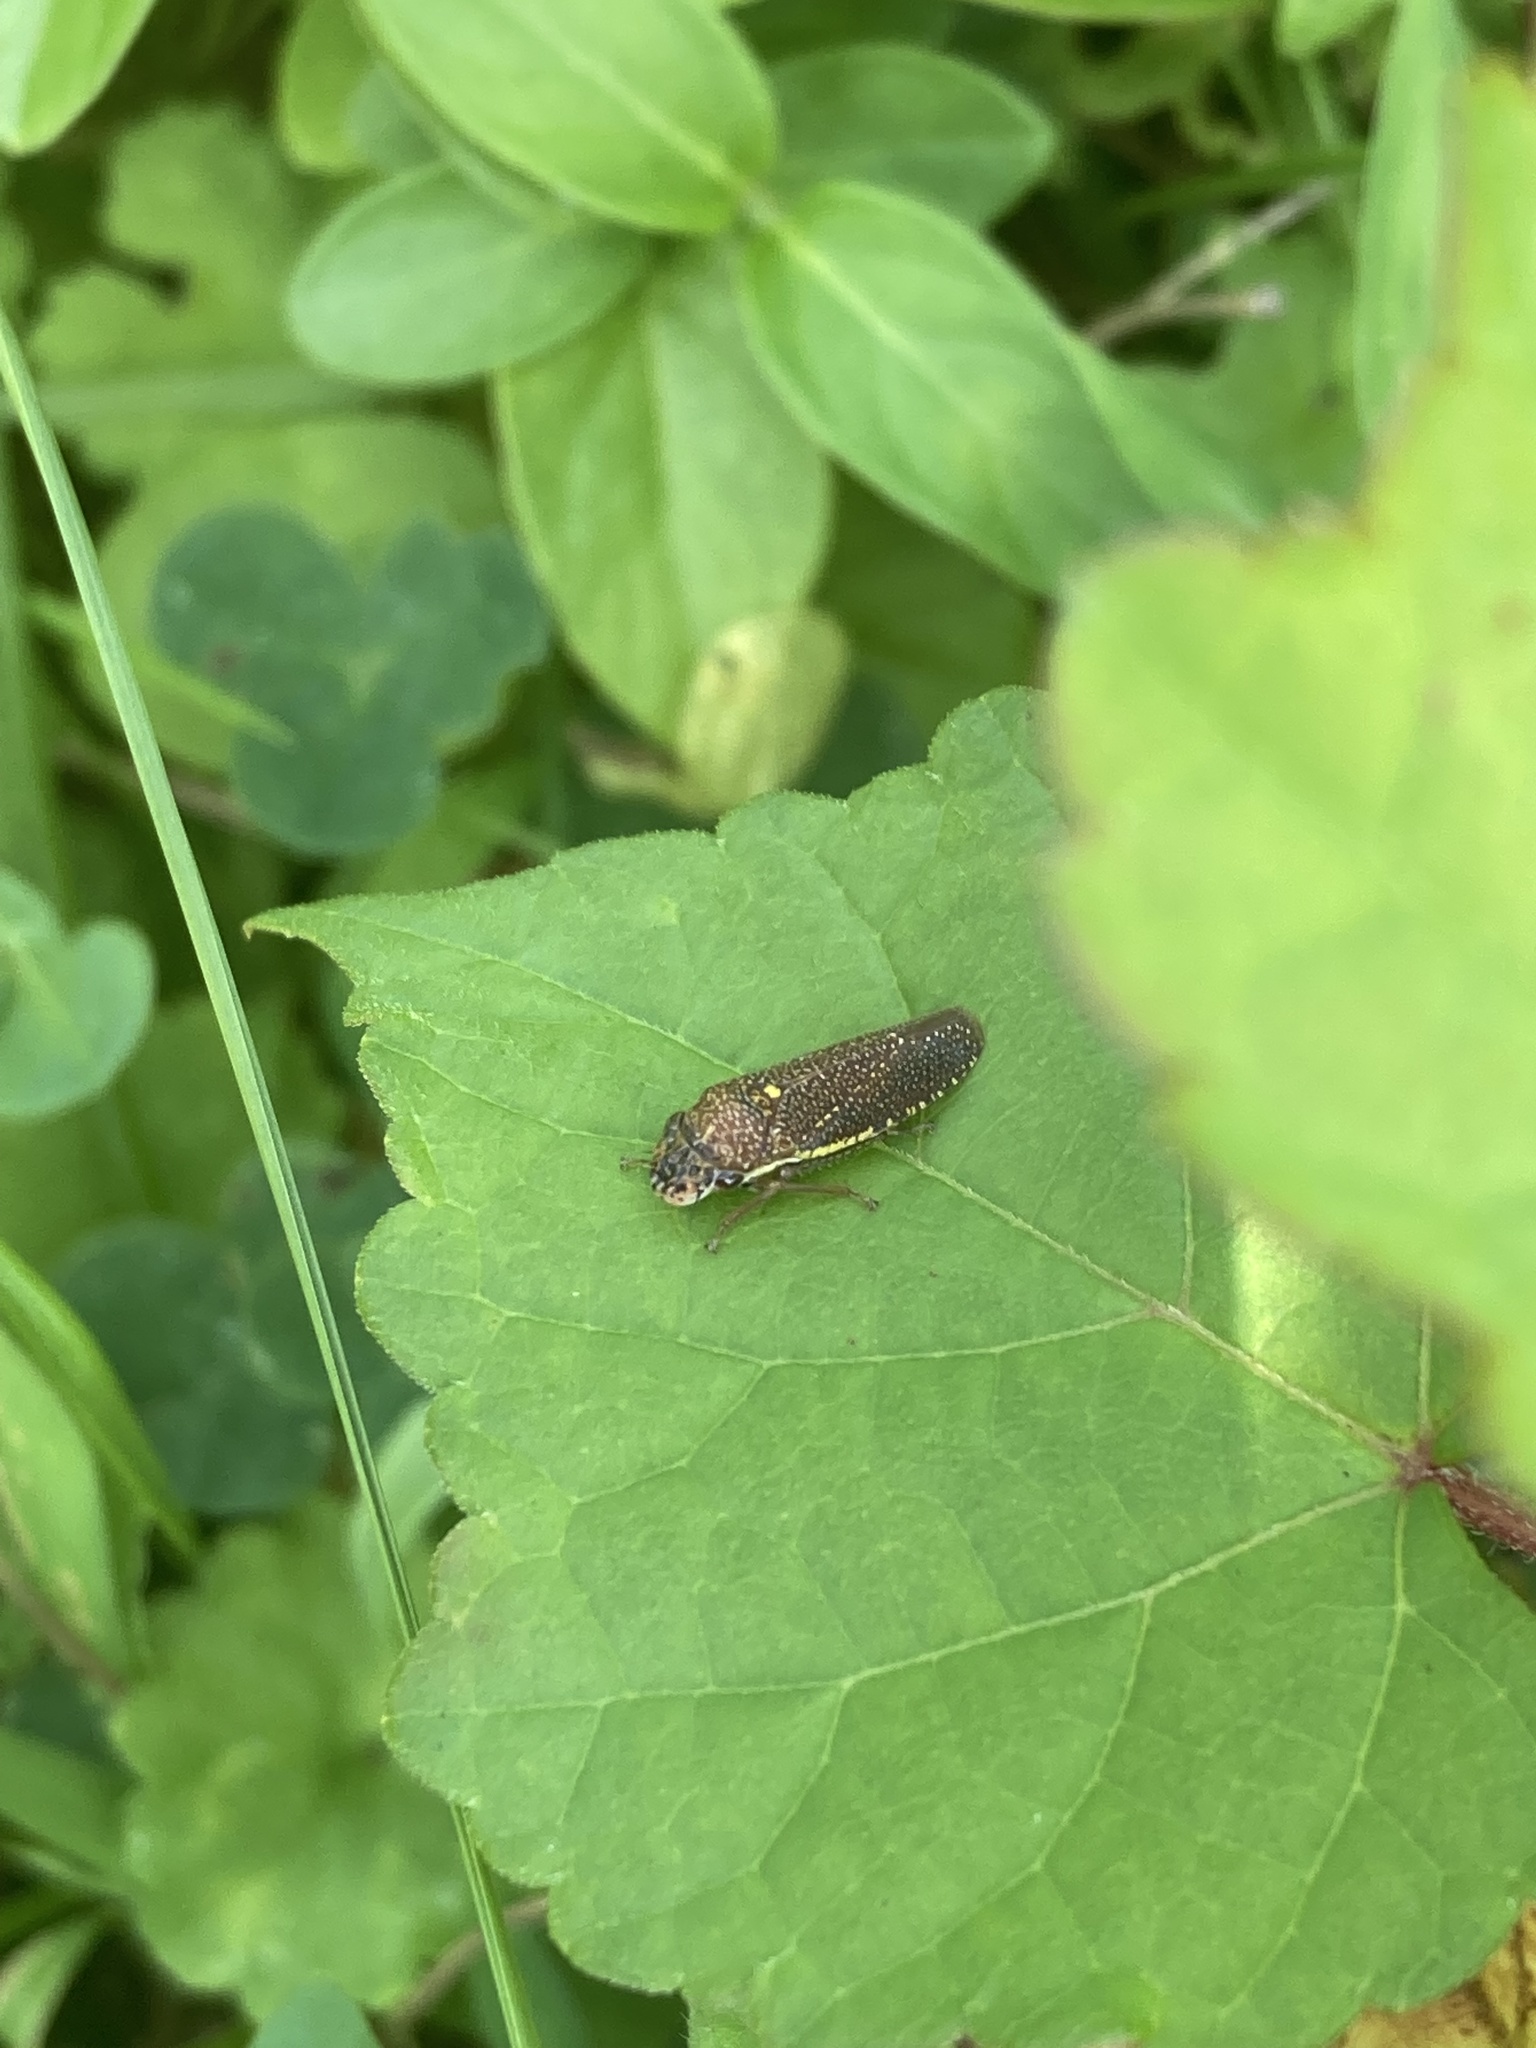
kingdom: Animalia
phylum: Arthropoda
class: Insecta
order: Hemiptera
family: Cicadellidae
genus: Paraulacizes
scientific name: Paraulacizes irrorata
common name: Speckled sharpshooter
